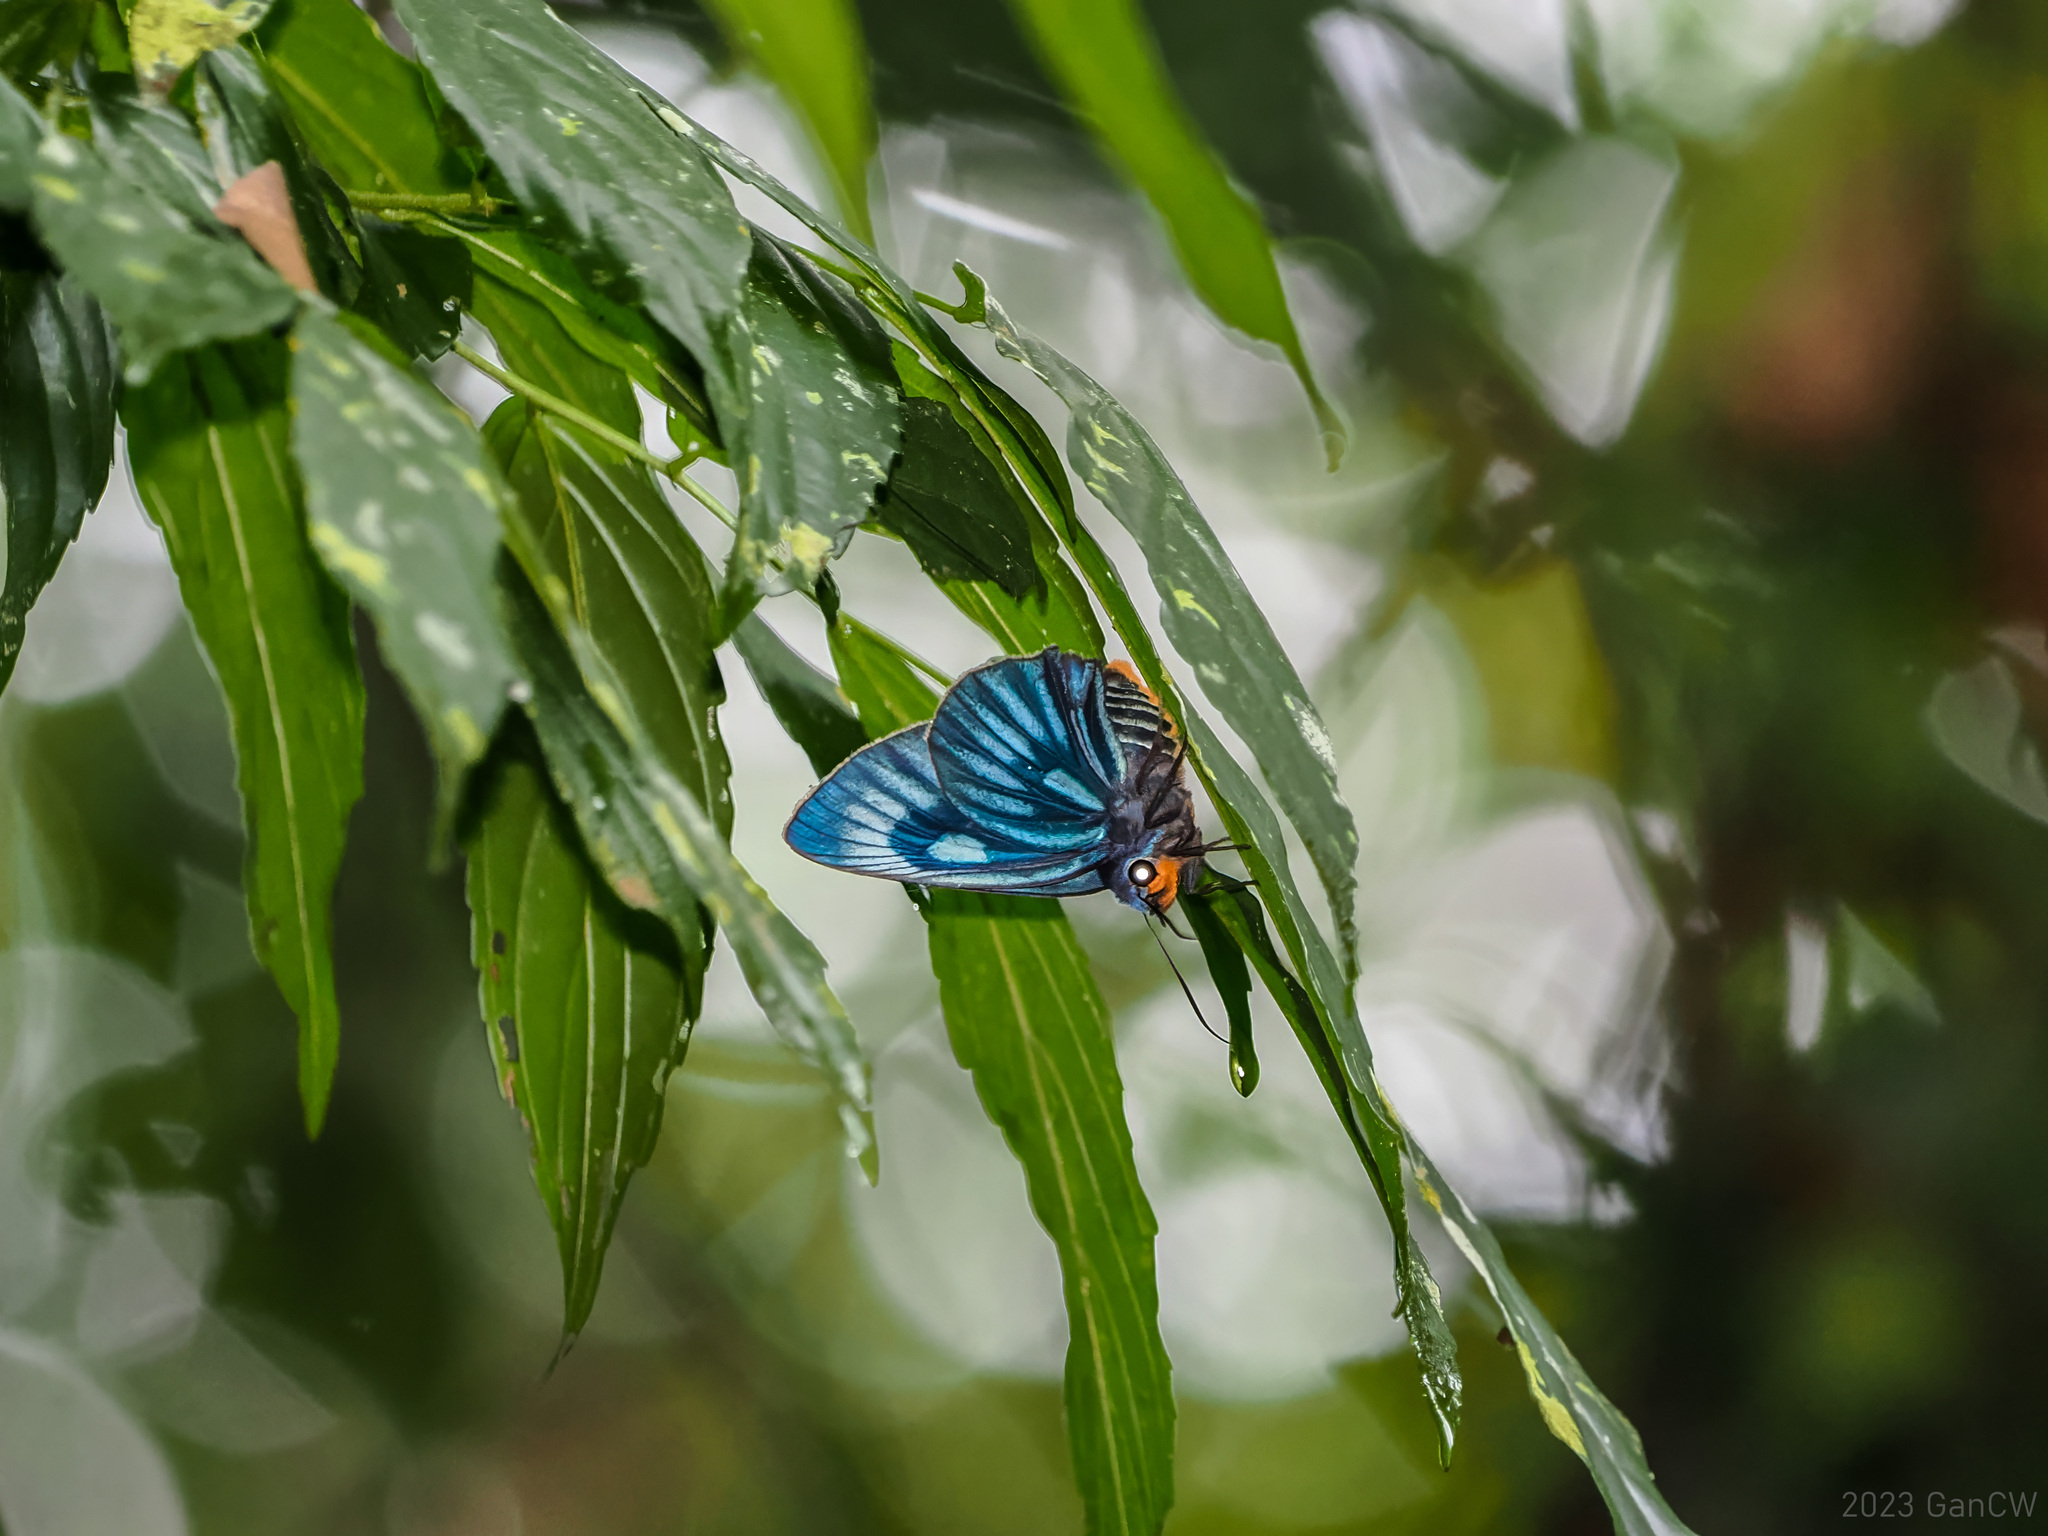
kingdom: Animalia
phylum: Arthropoda
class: Insecta
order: Lepidoptera
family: Hesperiidae
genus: Bibasis
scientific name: Bibasis imperialis
